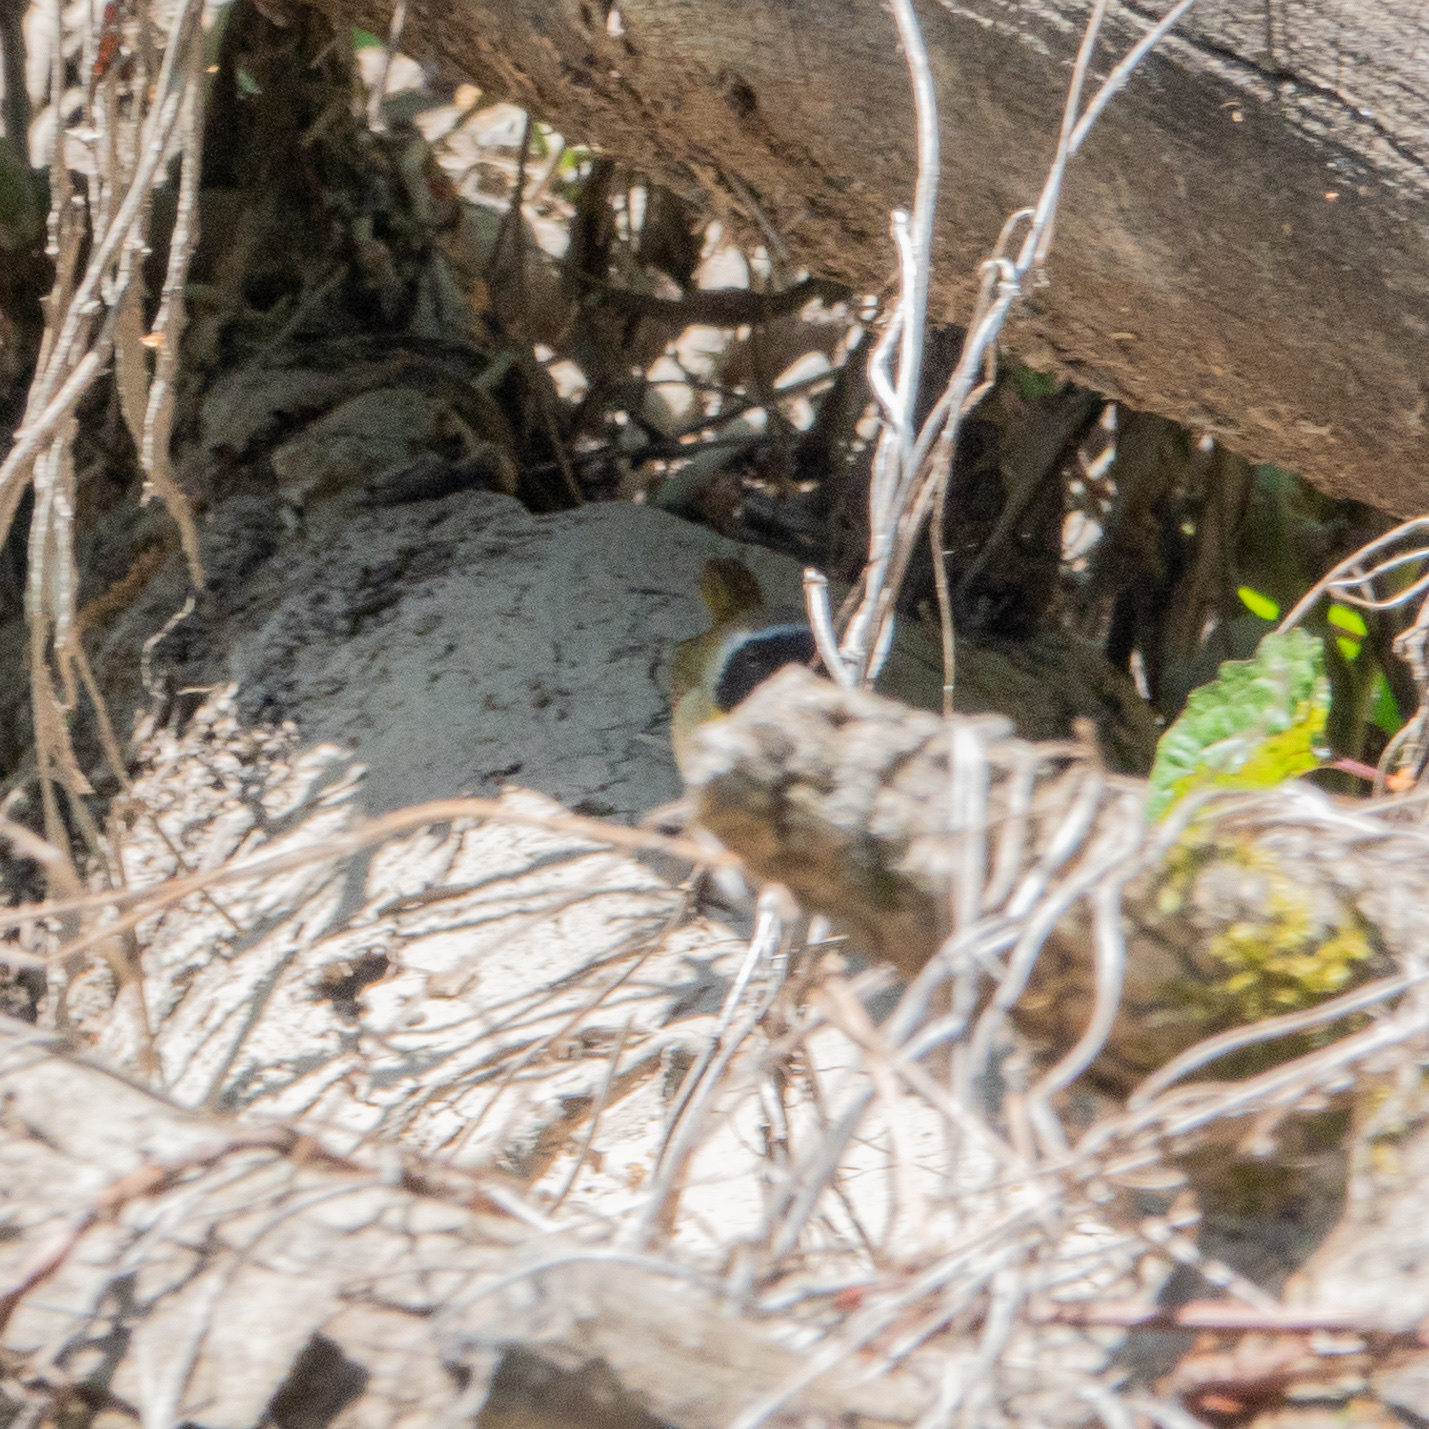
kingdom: Animalia
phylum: Chordata
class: Aves
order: Passeriformes
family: Parulidae
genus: Geothlypis
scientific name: Geothlypis trichas
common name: Common yellowthroat
